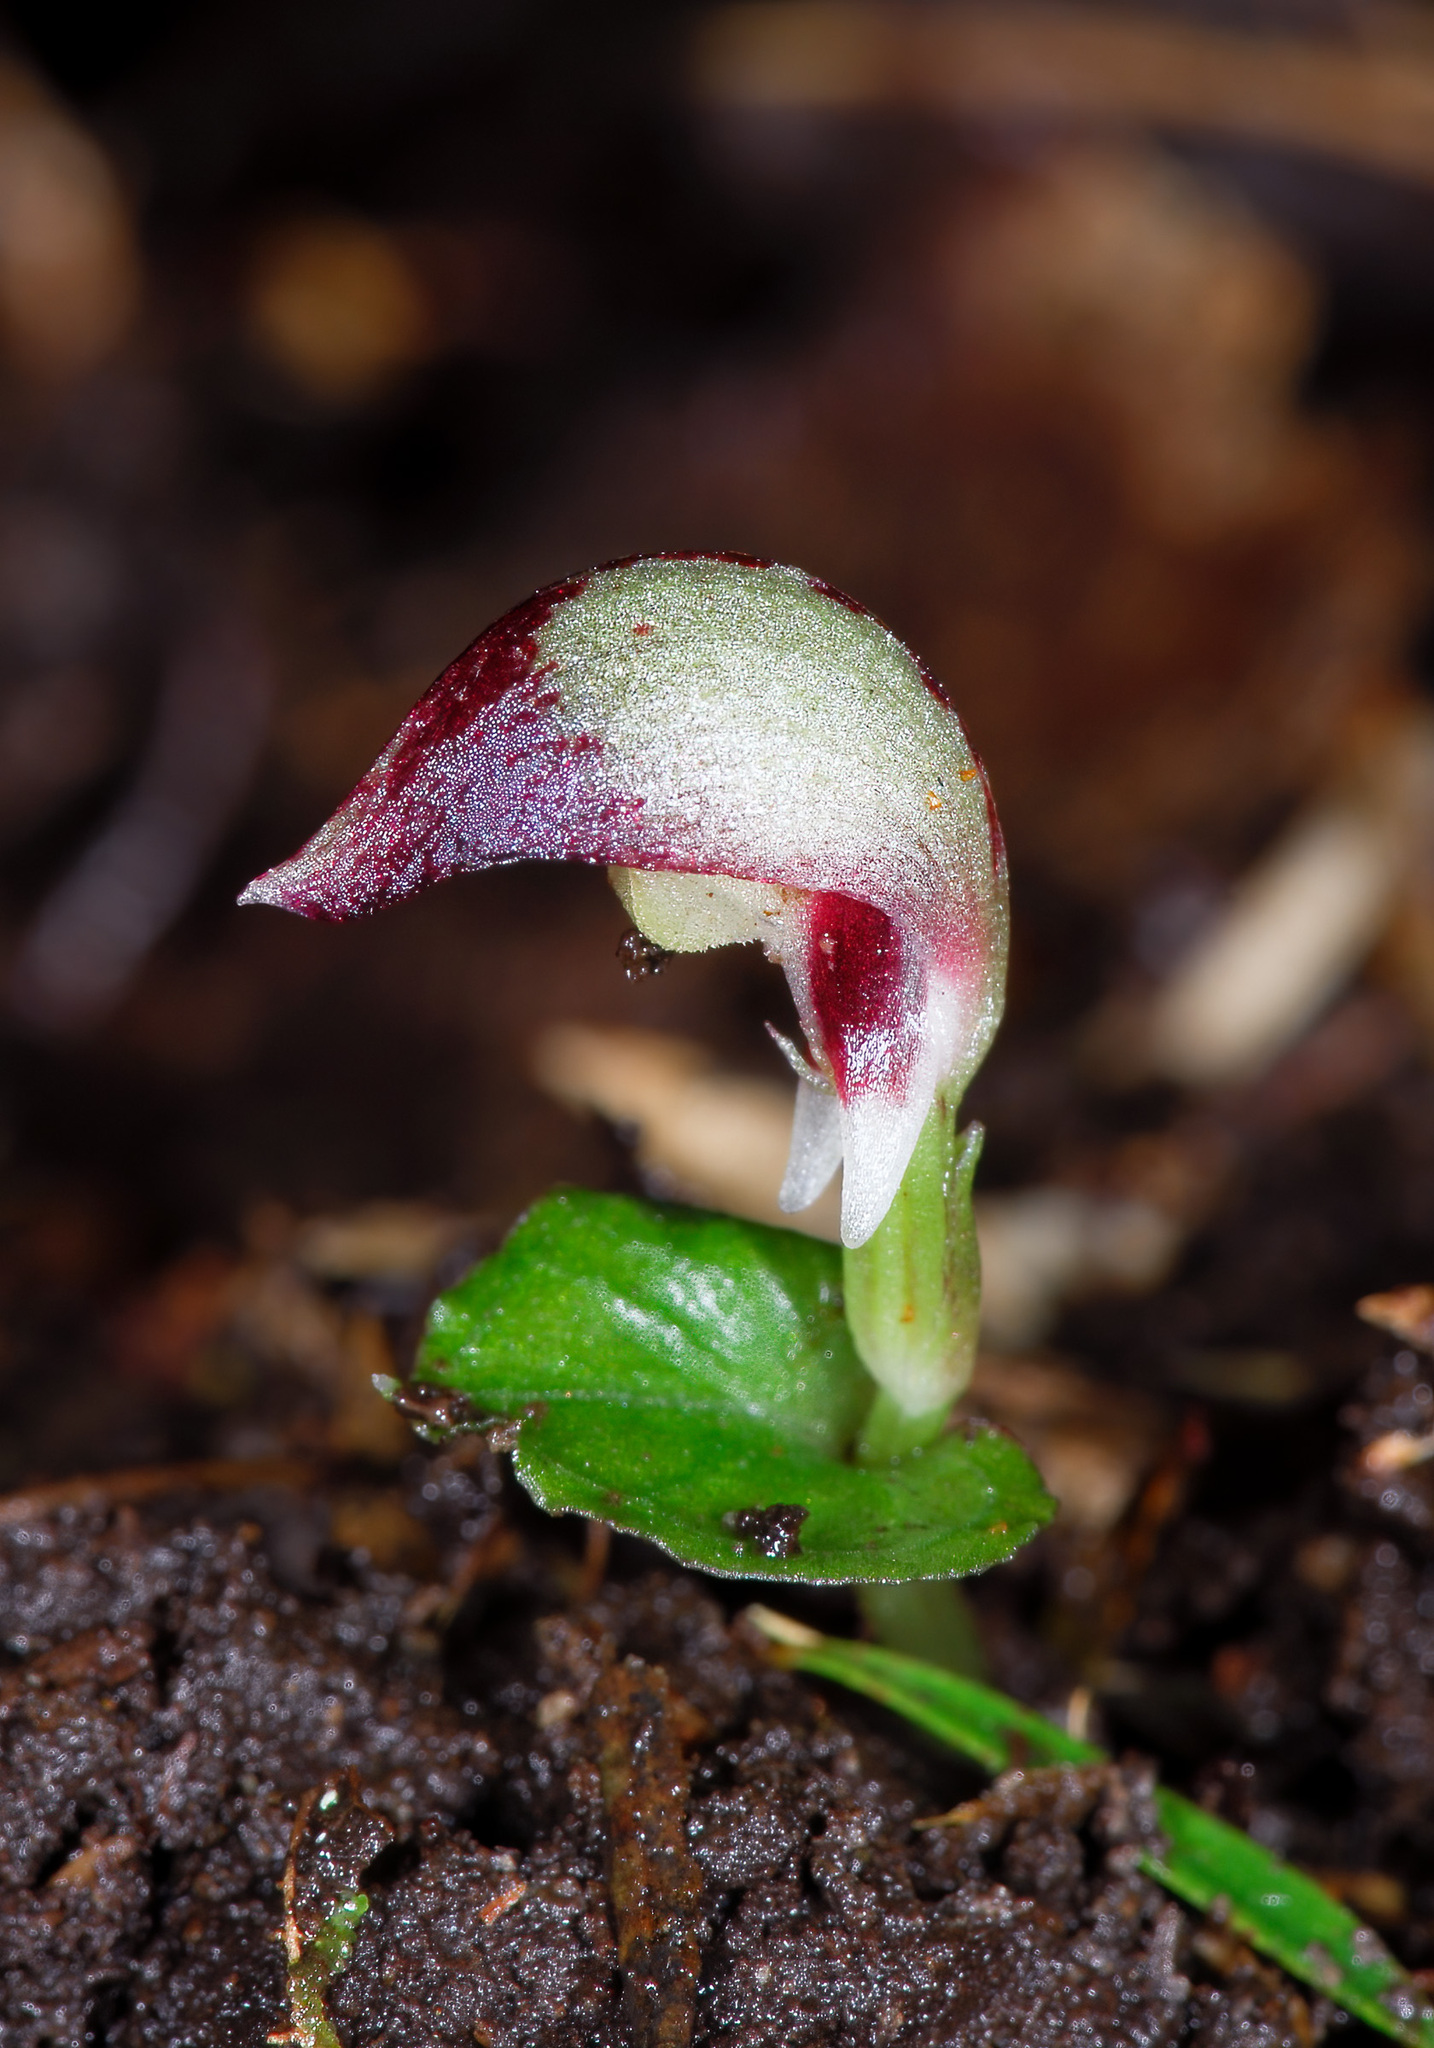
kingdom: Plantae
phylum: Tracheophyta
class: Liliopsida
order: Asparagales
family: Orchidaceae
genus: Corybas
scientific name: Corybas cheesemanii
